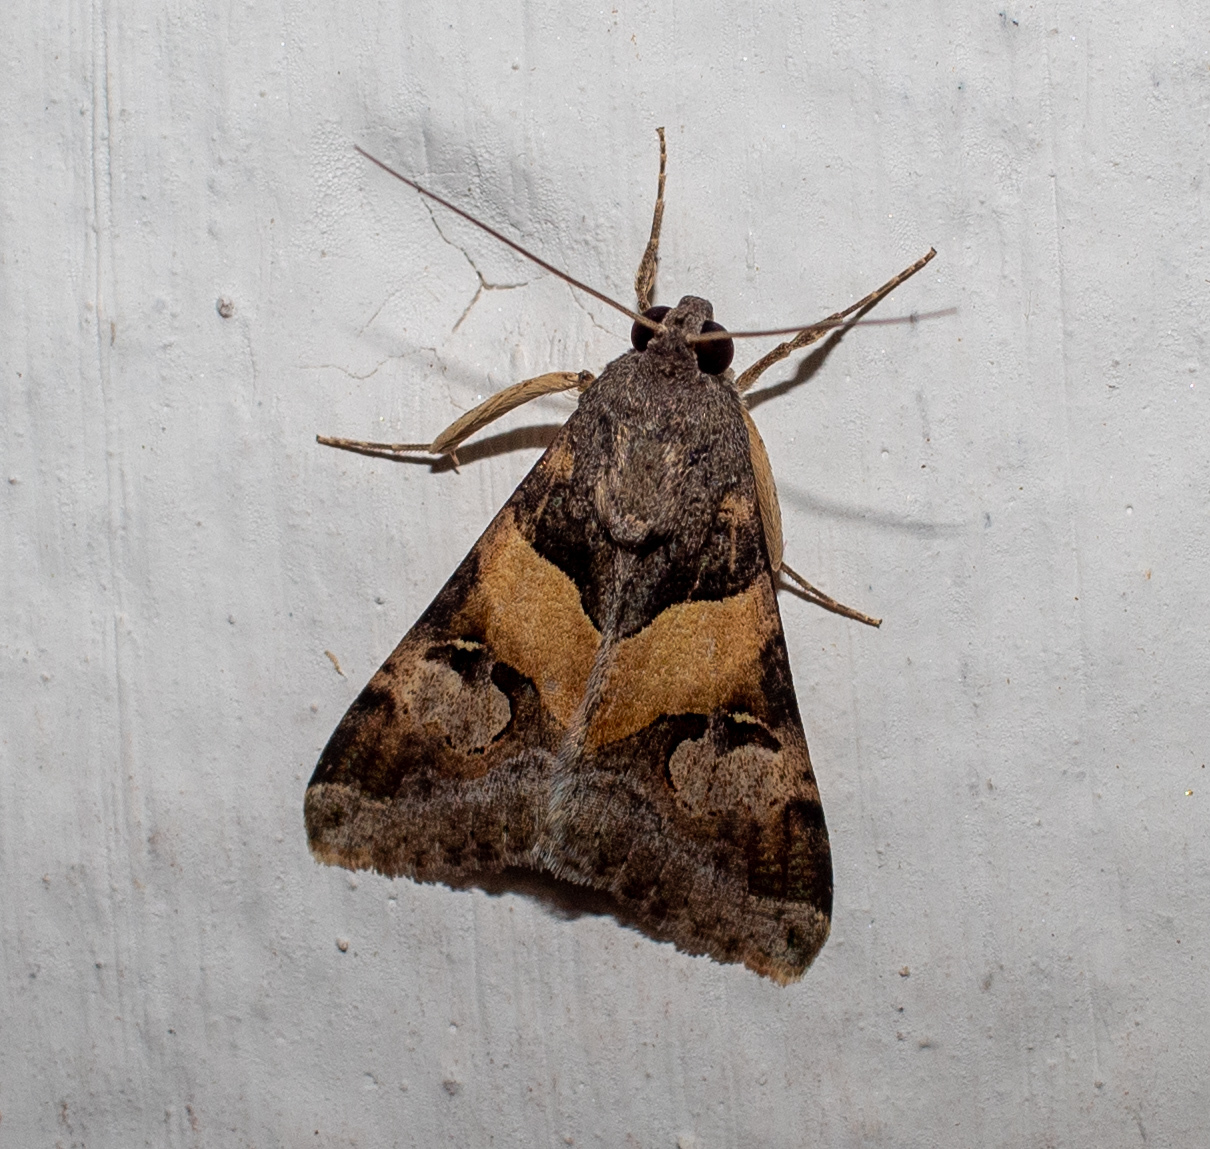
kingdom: Animalia
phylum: Arthropoda
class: Insecta
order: Lepidoptera
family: Erebidae
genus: Melipotis
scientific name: Melipotis ochrodes
